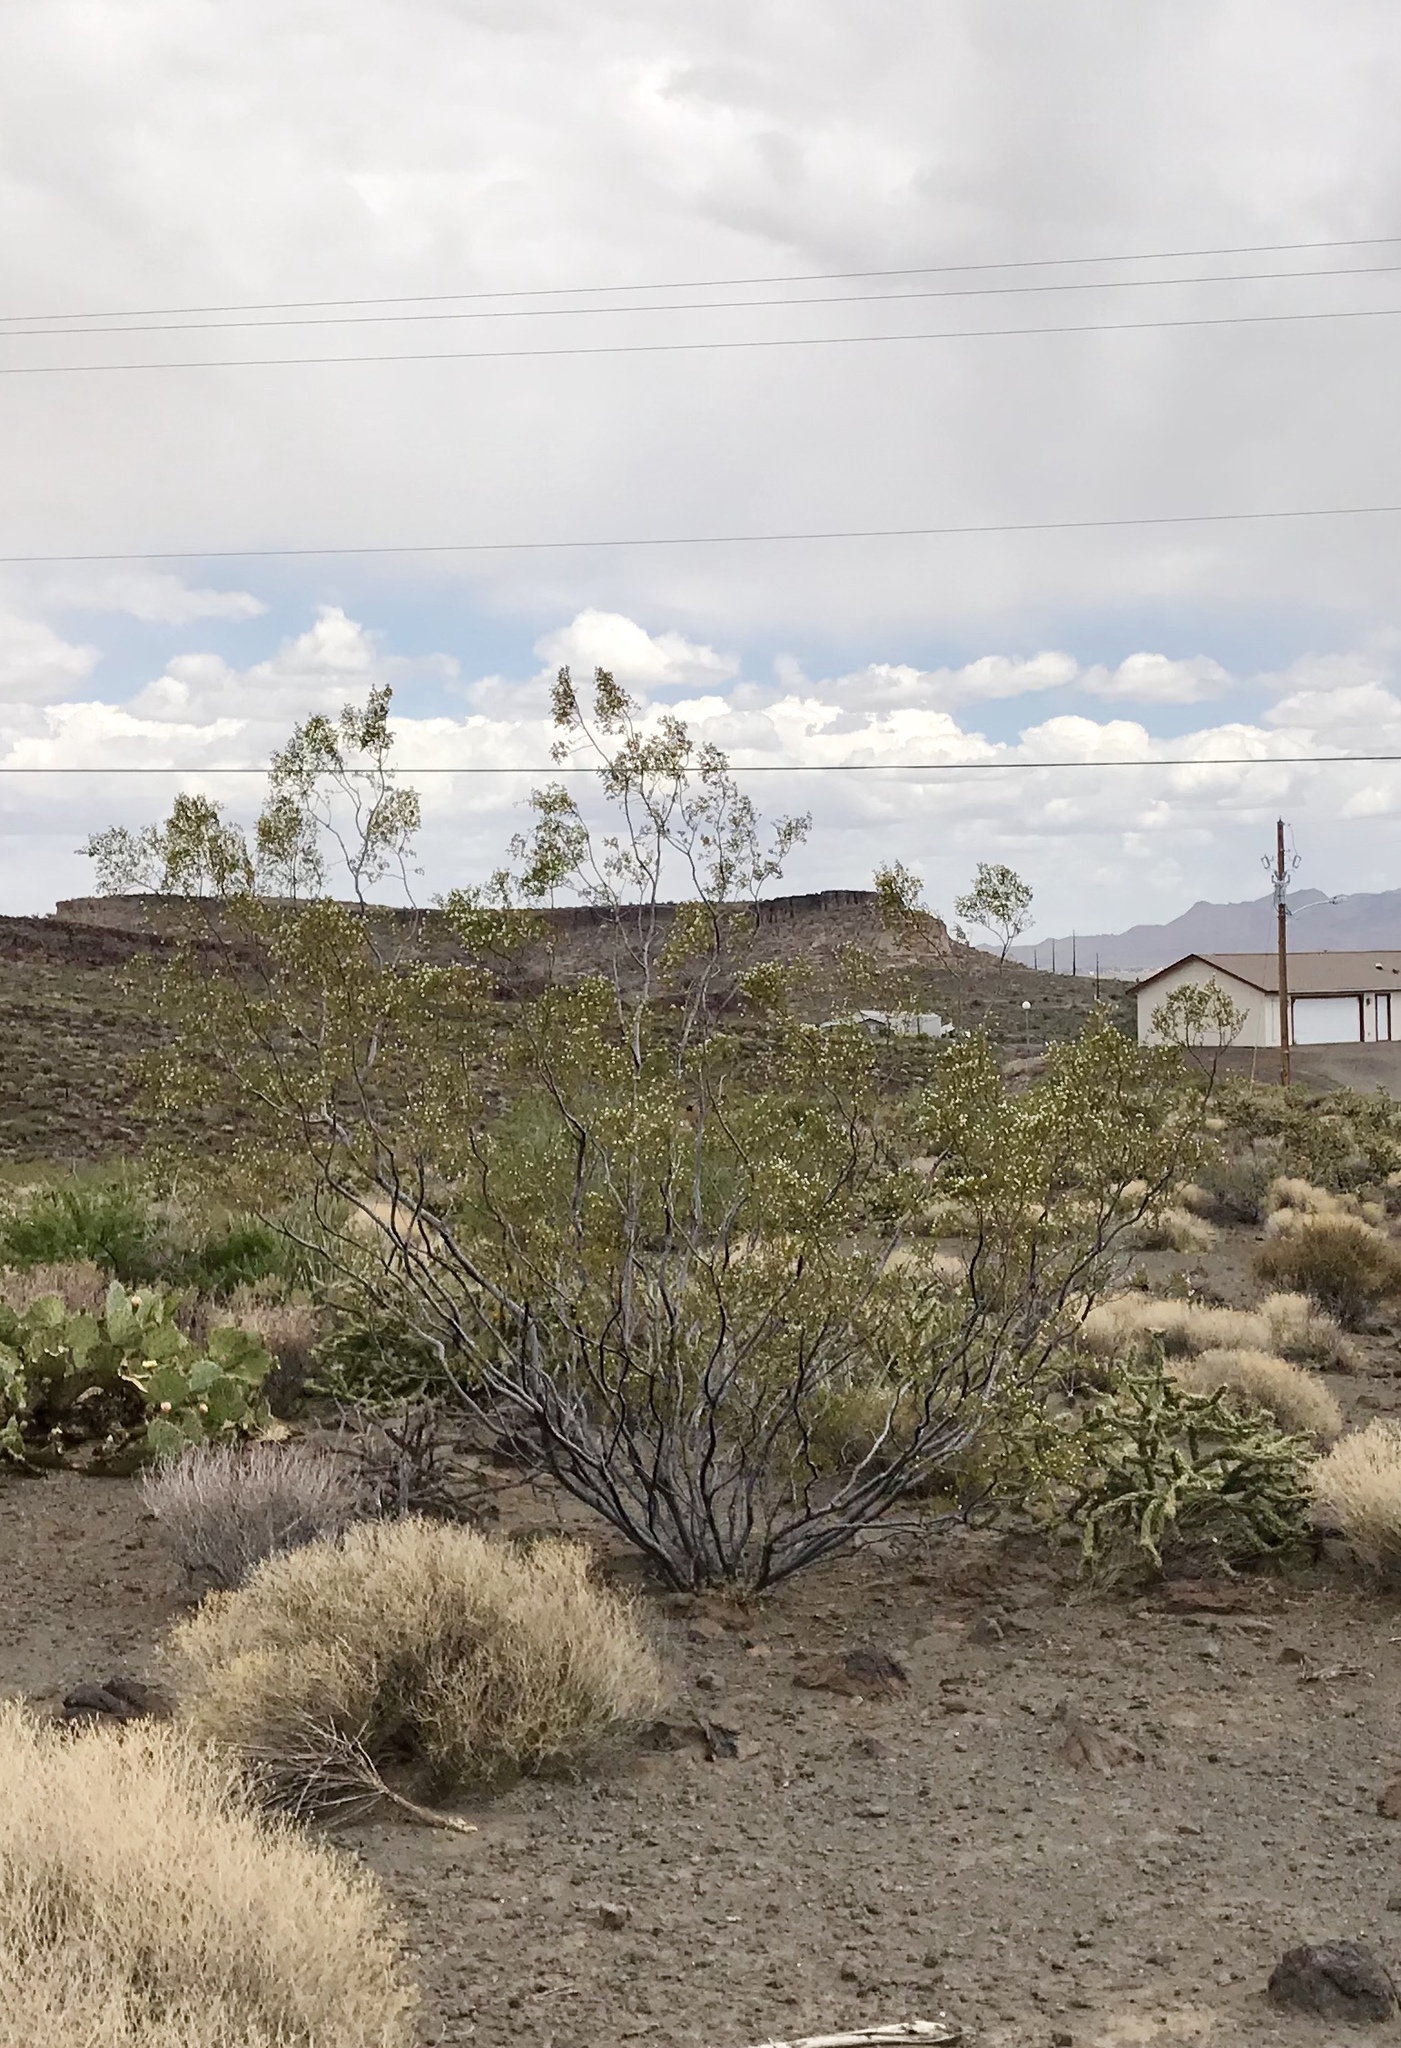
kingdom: Plantae
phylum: Tracheophyta
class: Magnoliopsida
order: Zygophyllales
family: Zygophyllaceae
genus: Larrea
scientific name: Larrea tridentata
